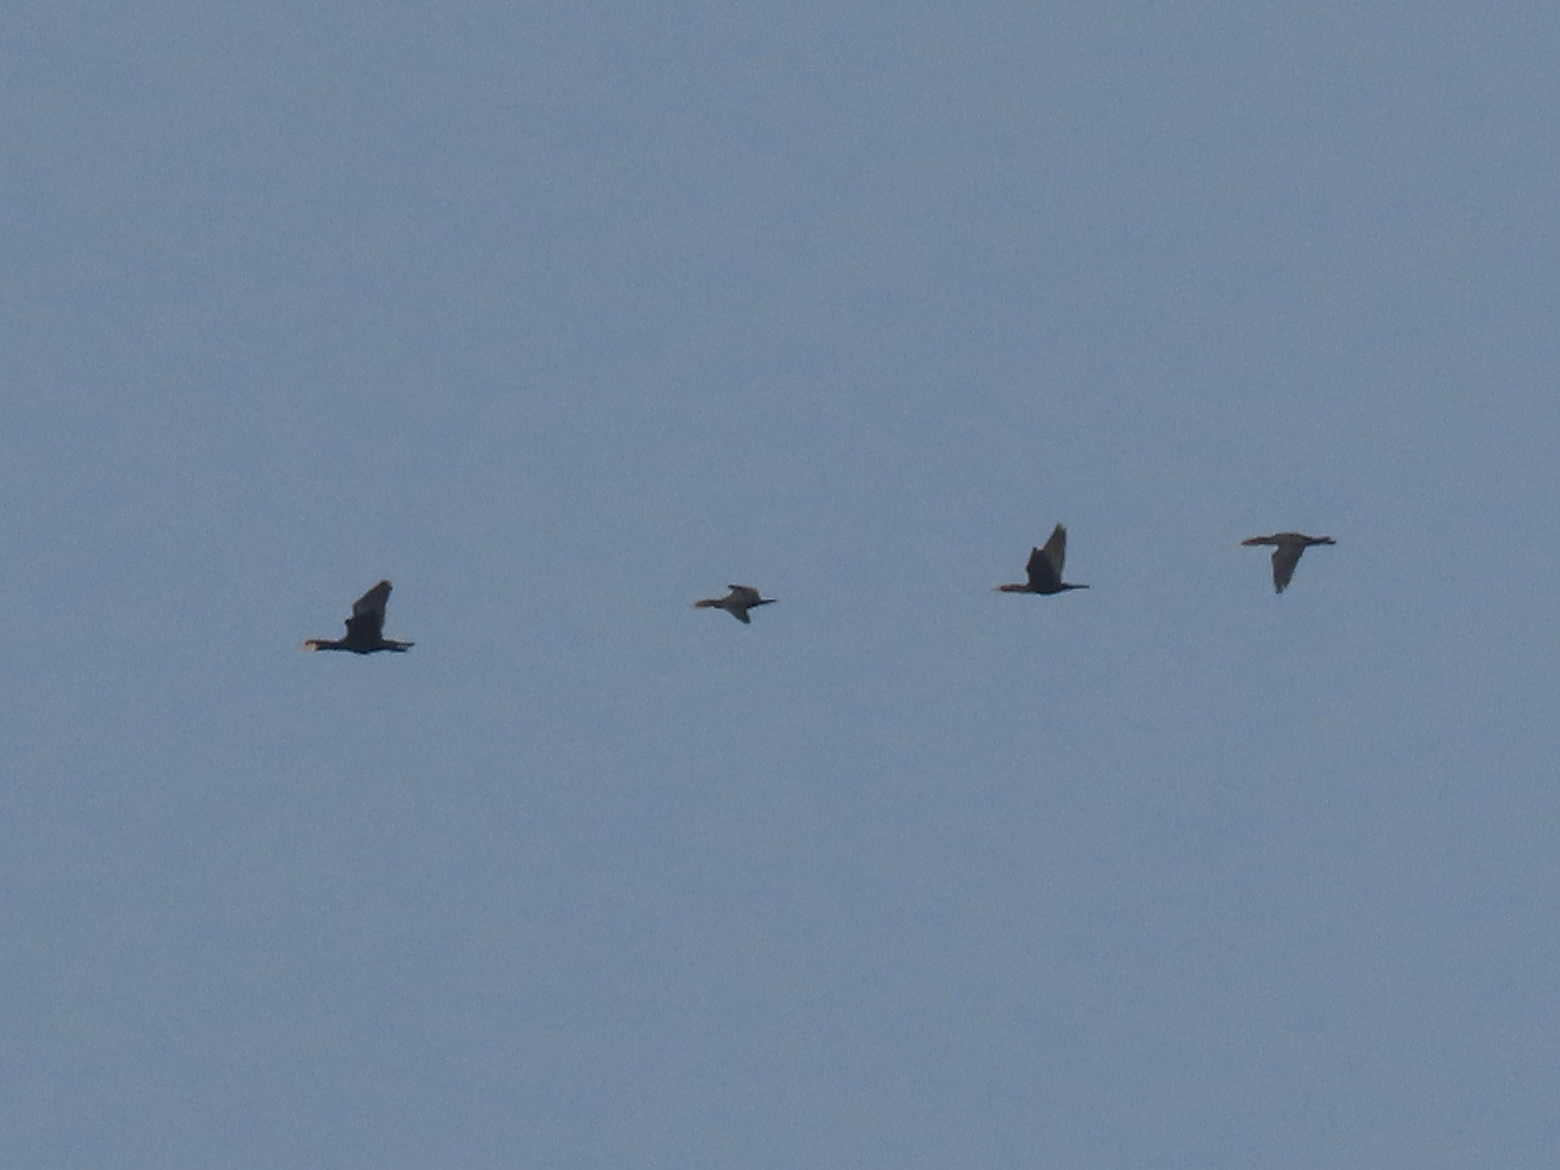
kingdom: Animalia
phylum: Chordata
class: Aves
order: Suliformes
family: Phalacrocoracidae
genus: Phalacrocorax
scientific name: Phalacrocorax carbo
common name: Great cormorant
